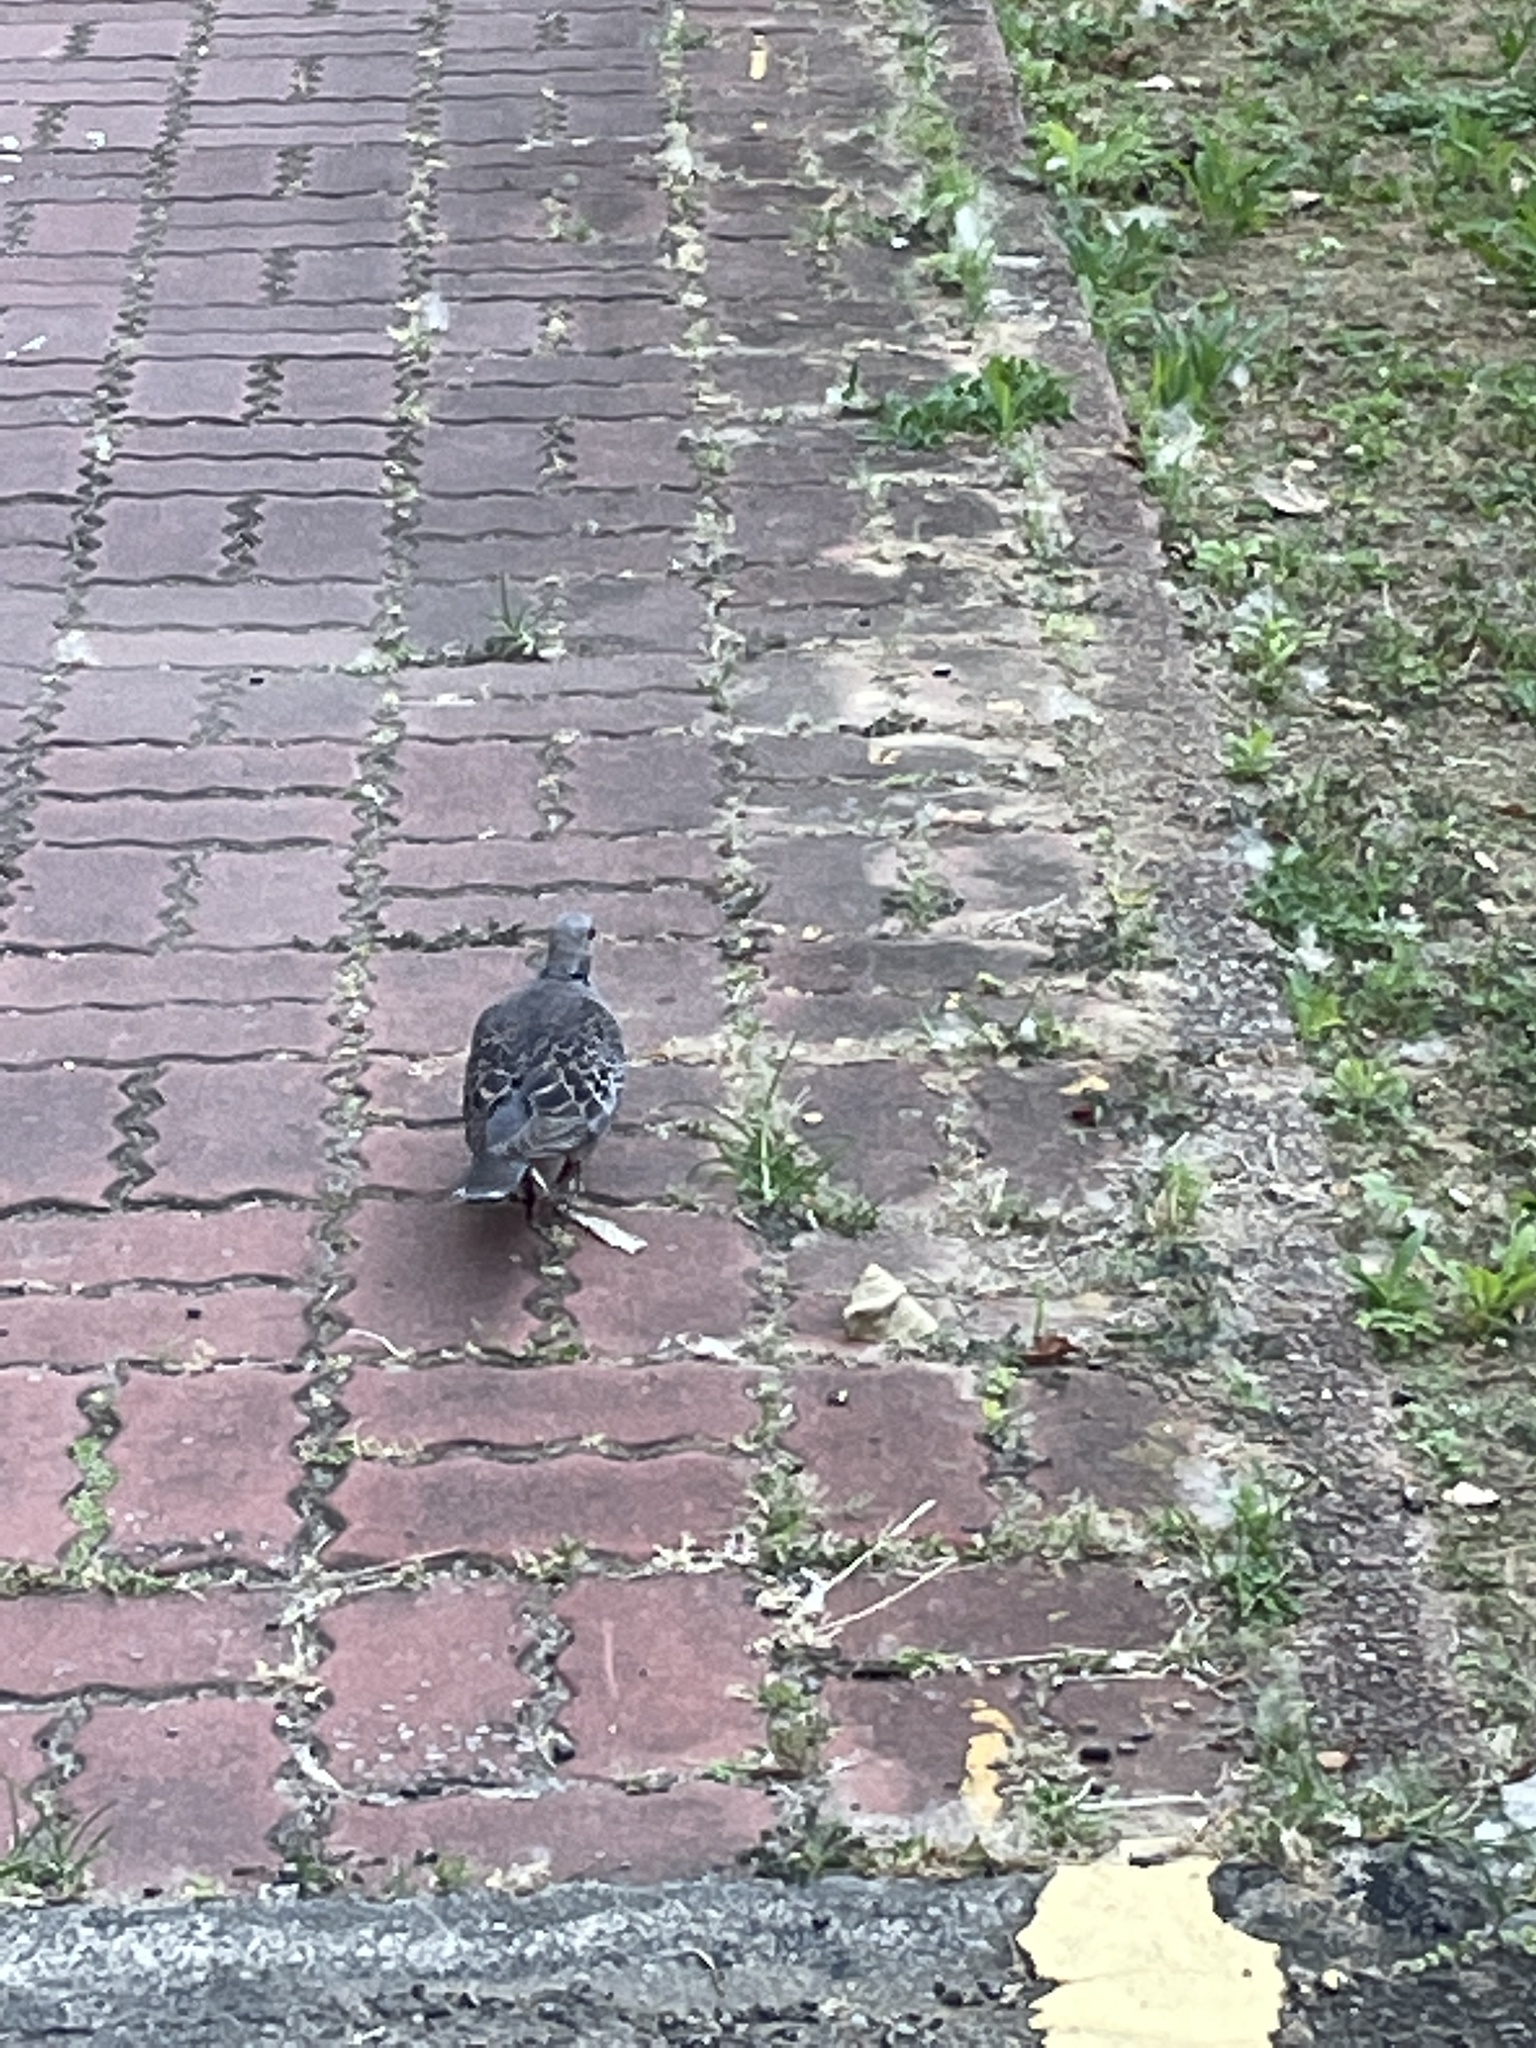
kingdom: Animalia
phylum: Chordata
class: Aves
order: Columbiformes
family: Columbidae
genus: Streptopelia
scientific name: Streptopelia orientalis
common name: Oriental turtle dove
